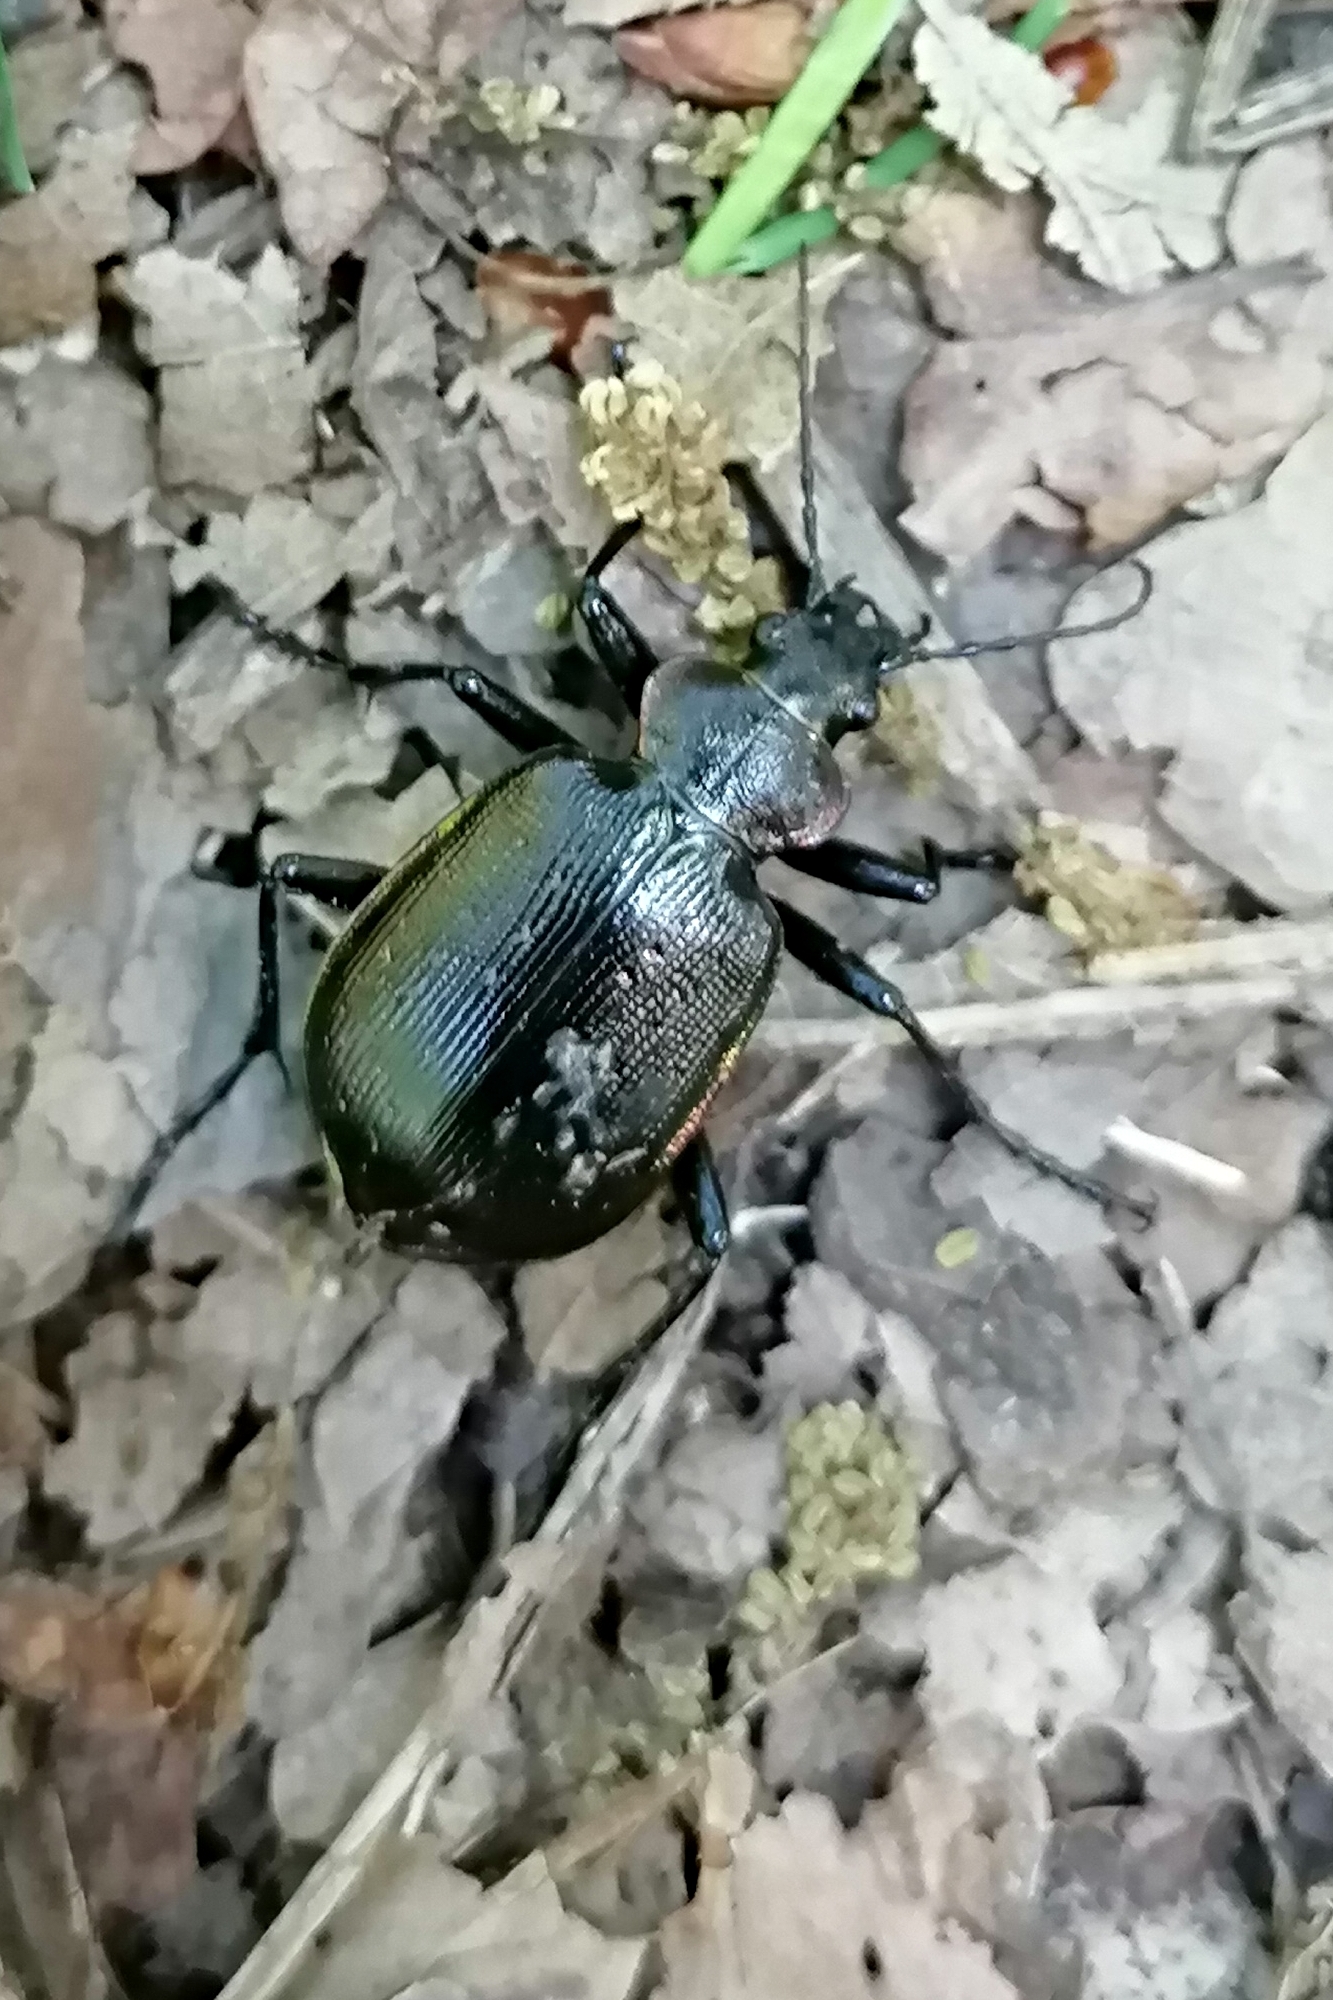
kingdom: Animalia
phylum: Arthropoda
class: Insecta
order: Coleoptera
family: Carabidae
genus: Calosoma
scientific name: Calosoma inquisitor
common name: Caterpillar-hunter
